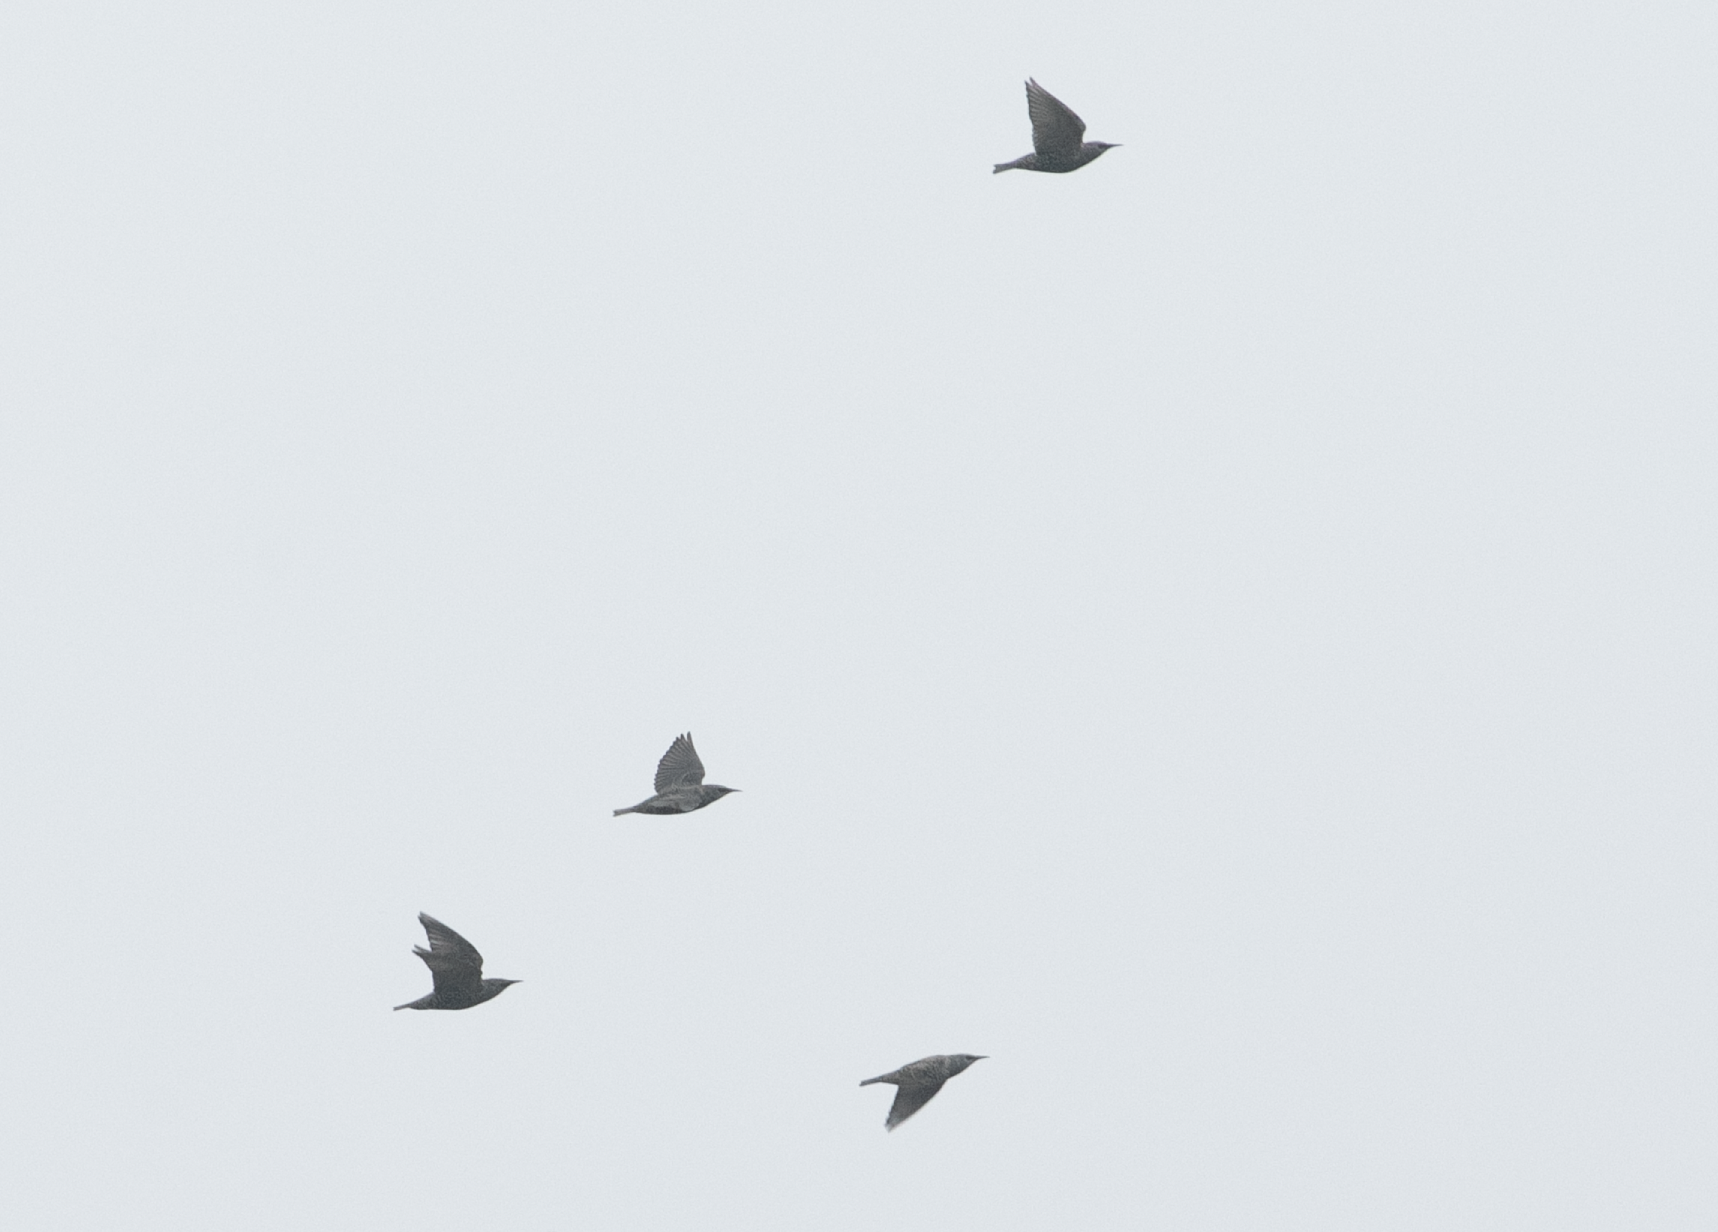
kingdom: Animalia
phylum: Chordata
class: Aves
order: Passeriformes
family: Sturnidae
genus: Sturnus
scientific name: Sturnus vulgaris
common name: Common starling
